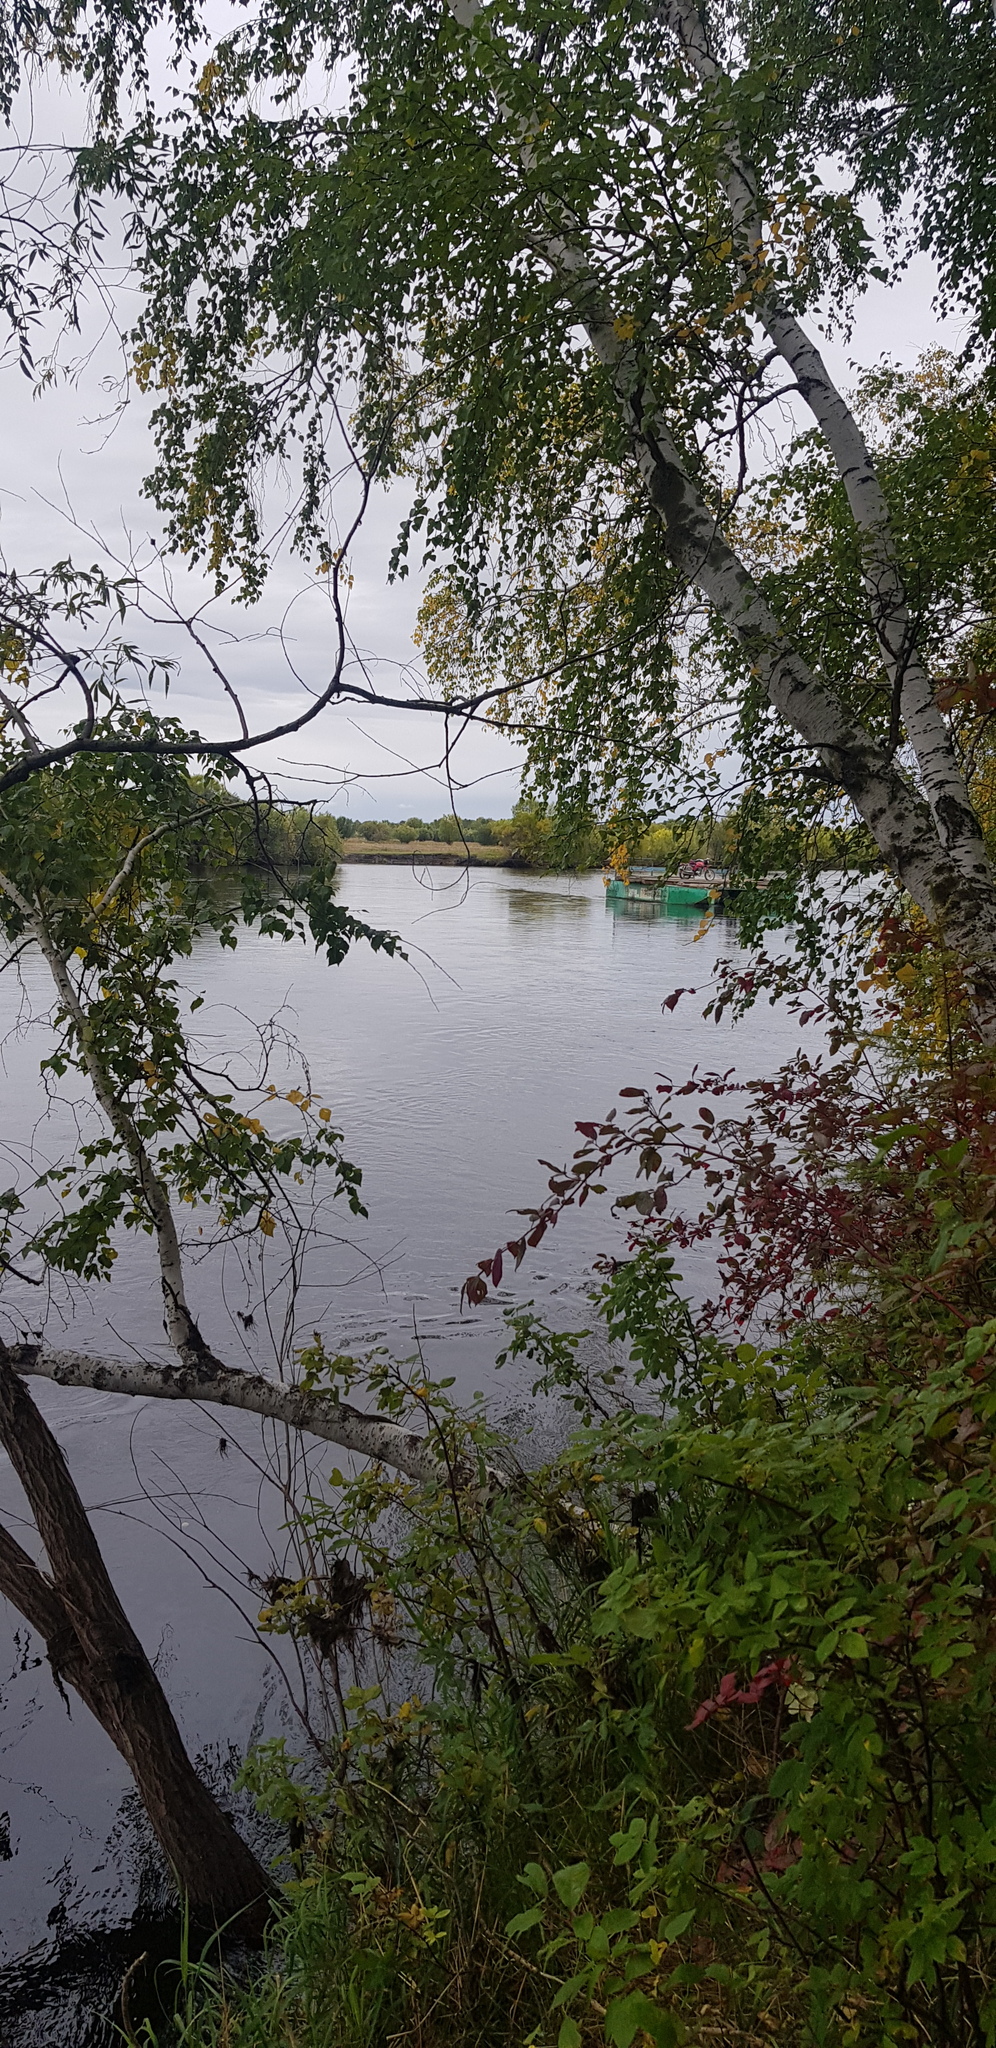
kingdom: Plantae
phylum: Tracheophyta
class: Magnoliopsida
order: Fagales
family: Betulaceae
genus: Betula
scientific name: Betula pendula
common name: Silver birch
